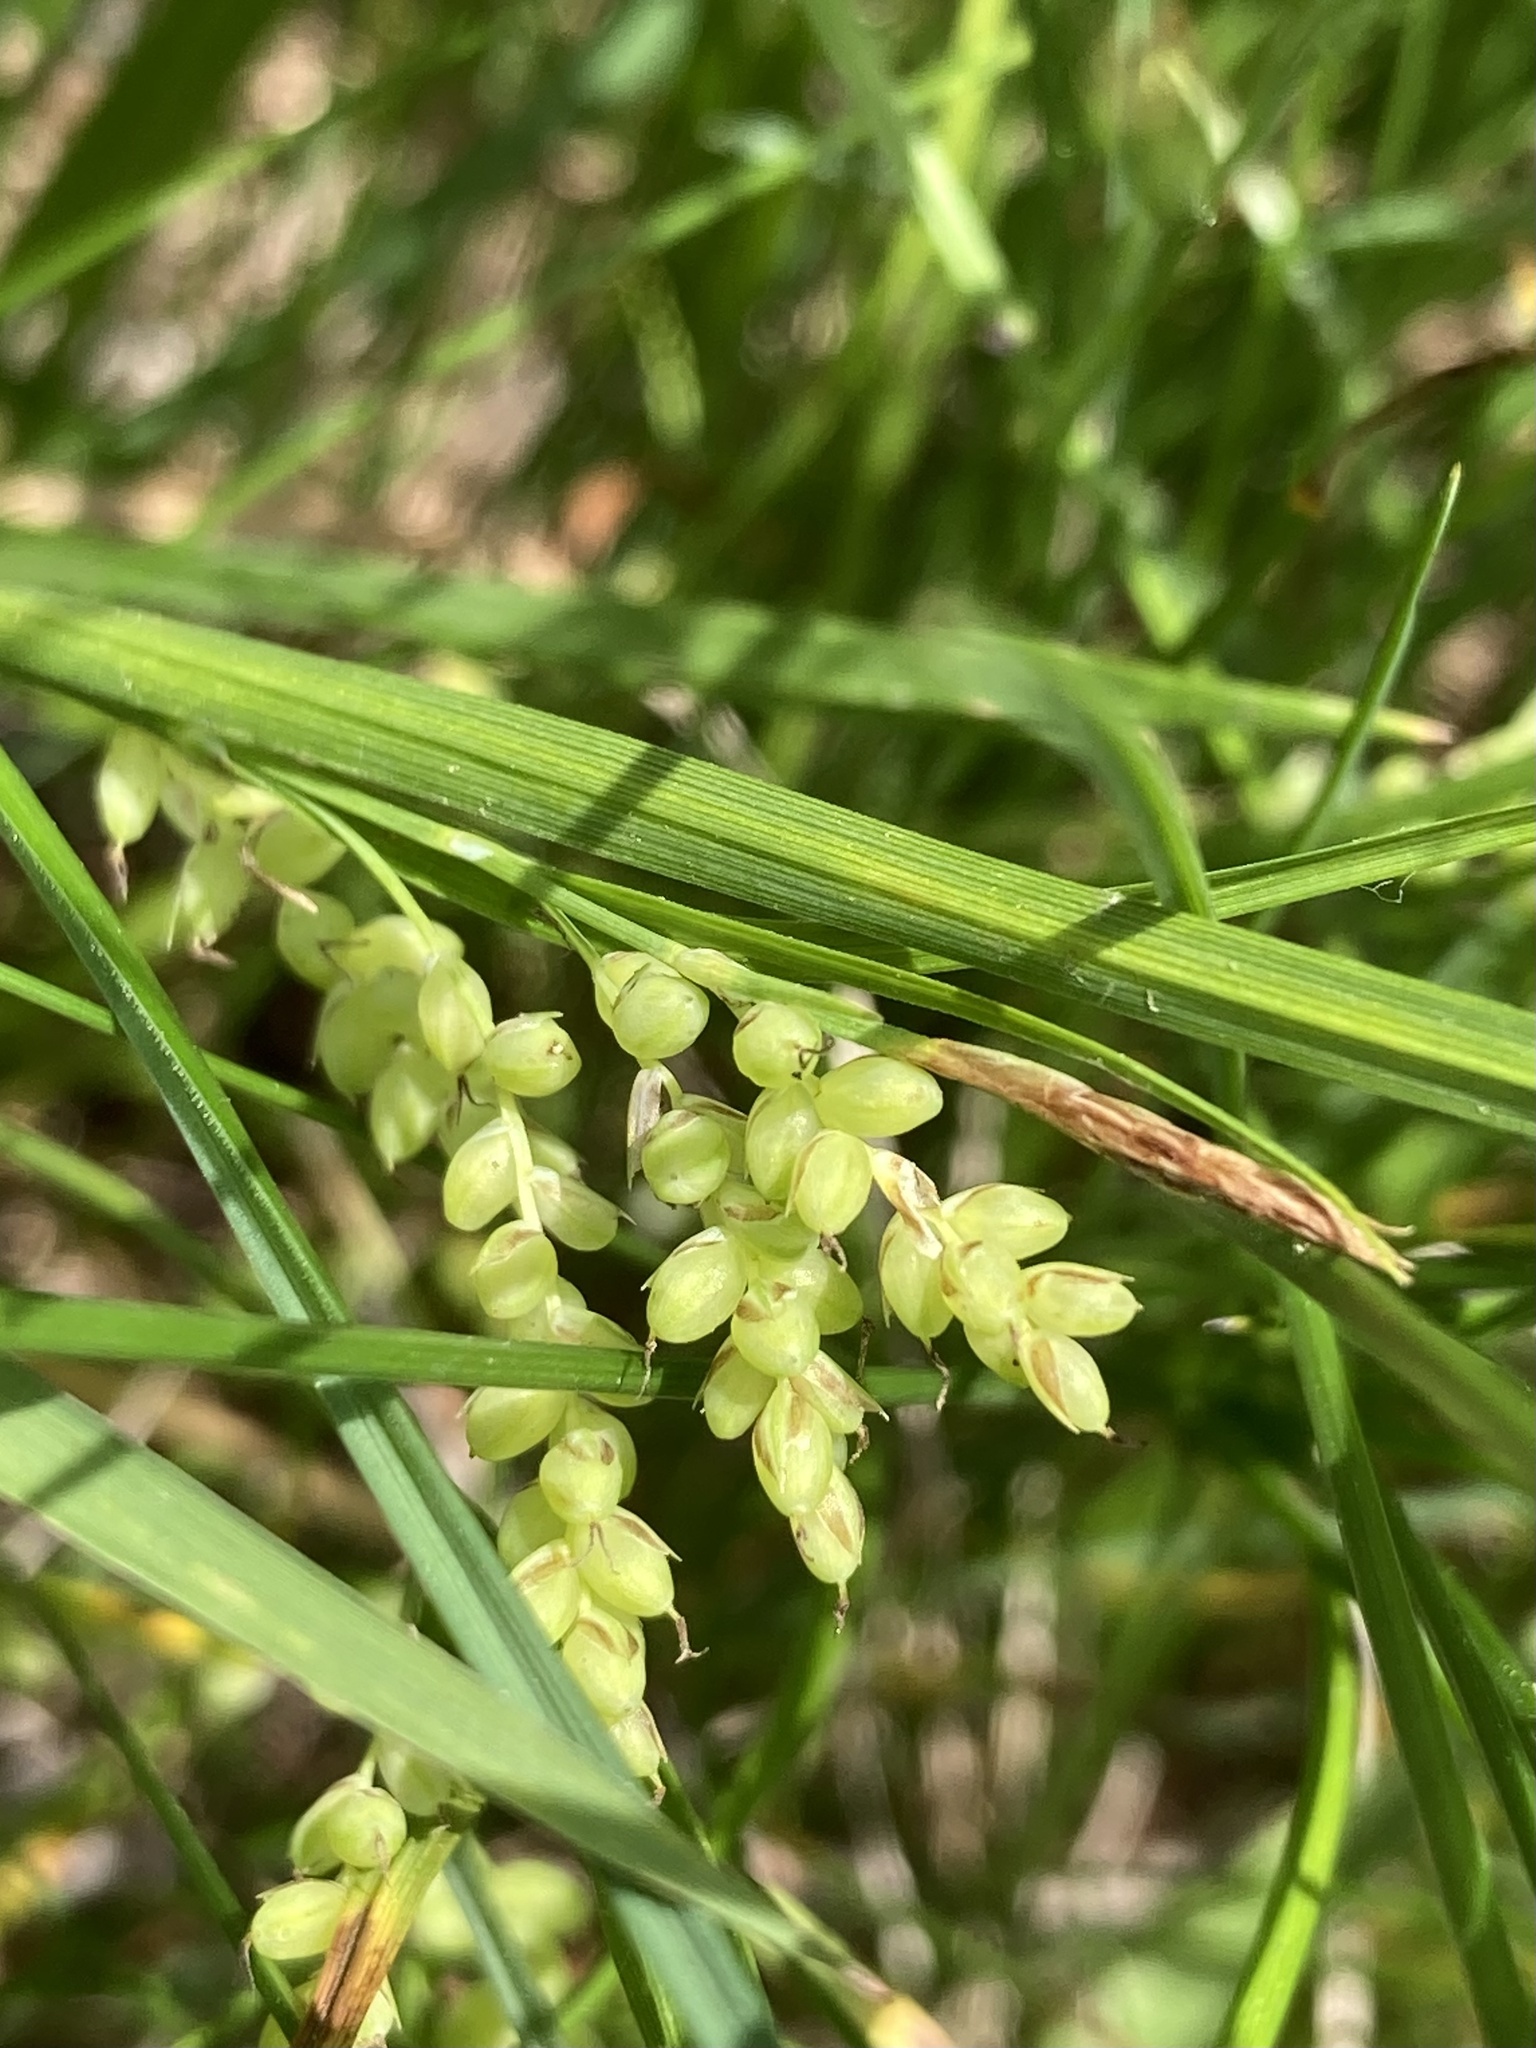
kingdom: Plantae
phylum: Tracheophyta
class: Liliopsida
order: Poales
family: Cyperaceae
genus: Carex
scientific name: Carex aurea
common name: Golden sedge
